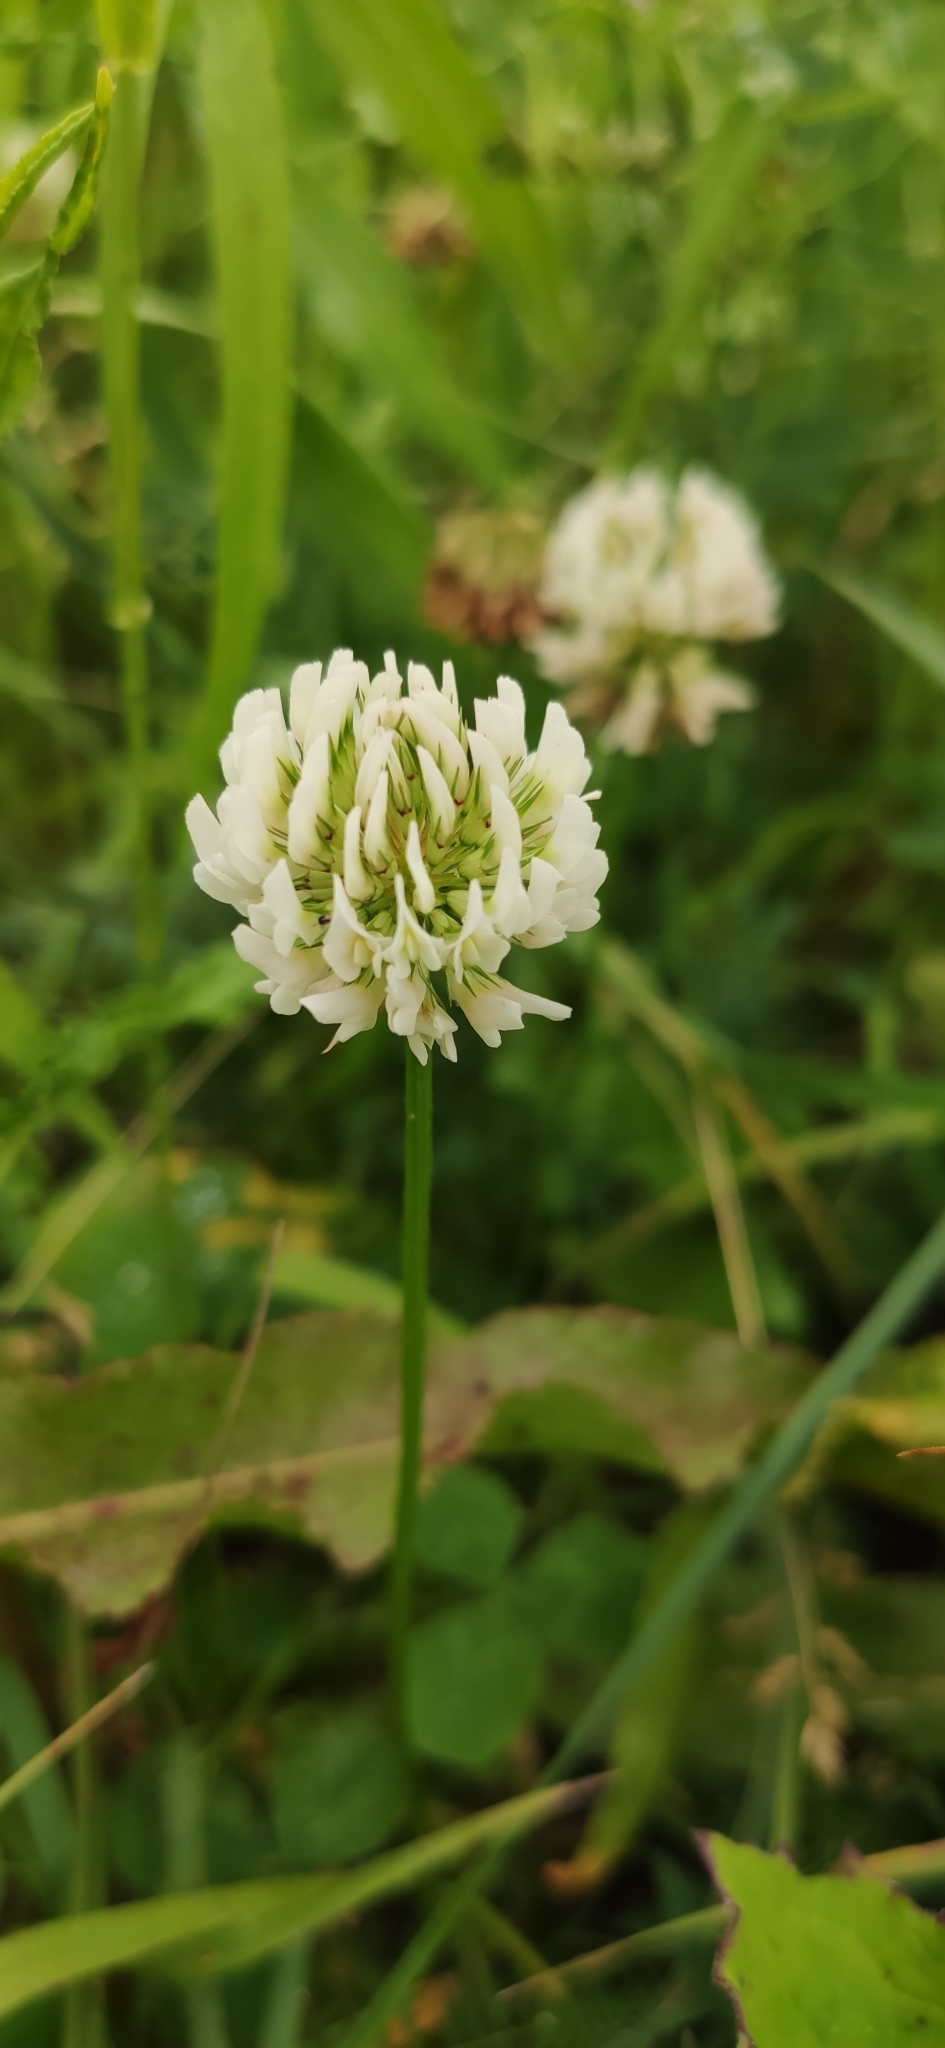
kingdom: Plantae
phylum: Tracheophyta
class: Magnoliopsida
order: Fabales
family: Fabaceae
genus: Trifolium
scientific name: Trifolium repens
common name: White clover
